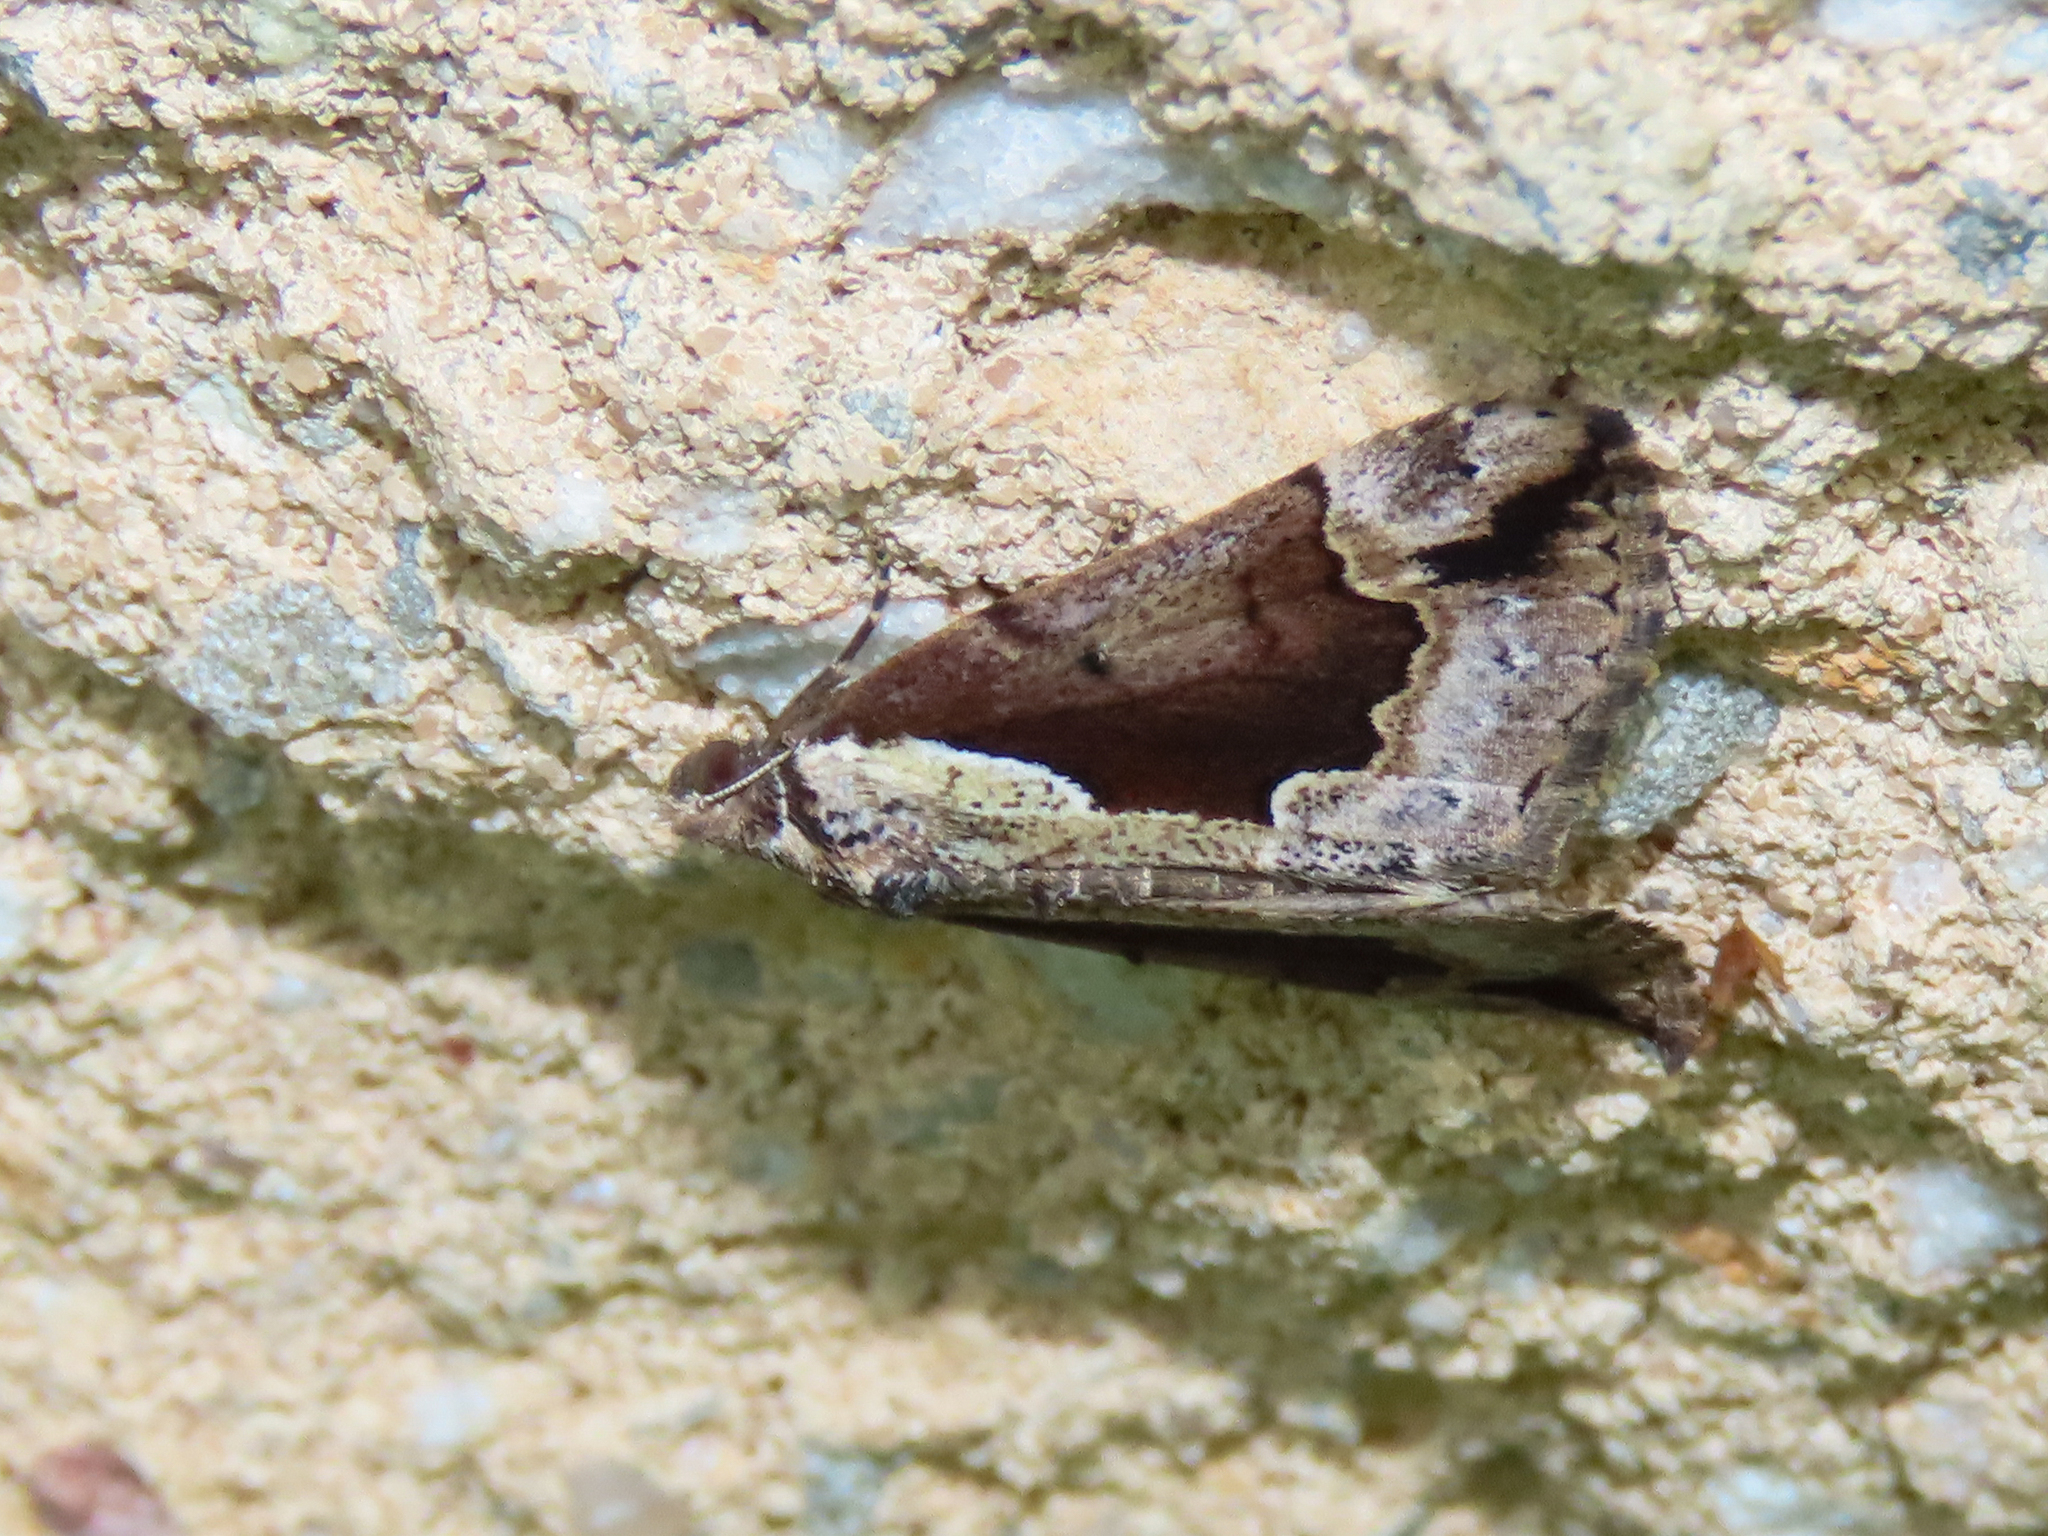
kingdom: Animalia
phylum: Arthropoda
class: Insecta
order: Lepidoptera
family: Erebidae
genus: Hypena
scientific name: Hypena baltimoralis
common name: Baltimore snout
